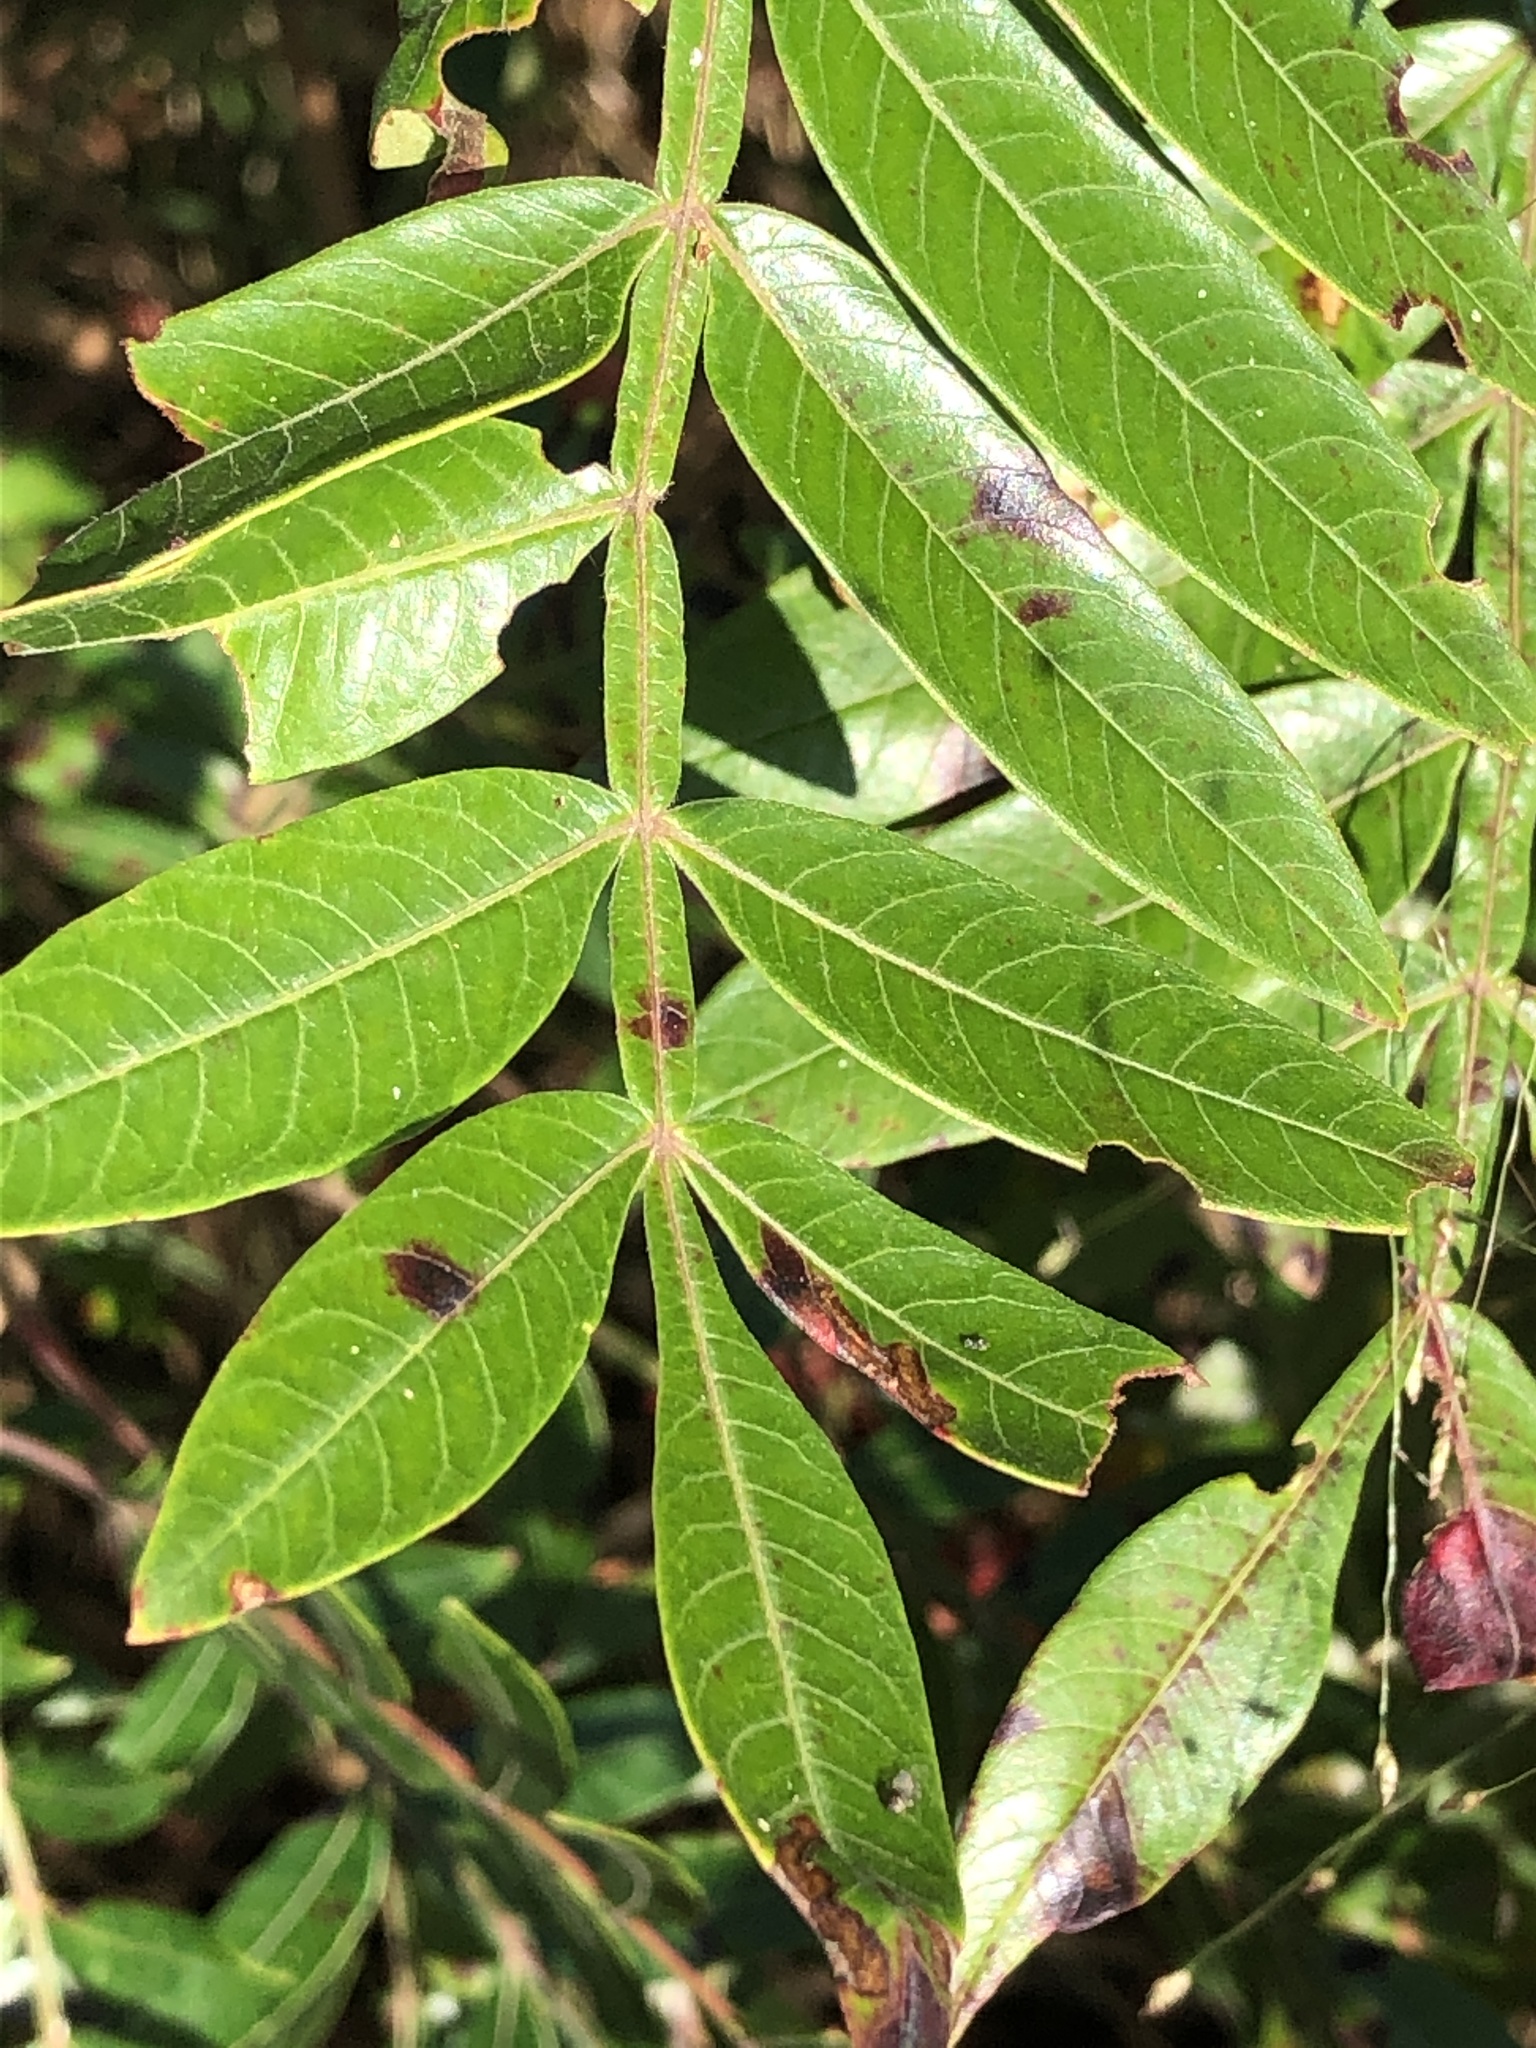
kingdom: Plantae
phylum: Tracheophyta
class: Magnoliopsida
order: Sapindales
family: Anacardiaceae
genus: Rhus
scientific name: Rhus copallina
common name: Shining sumac
